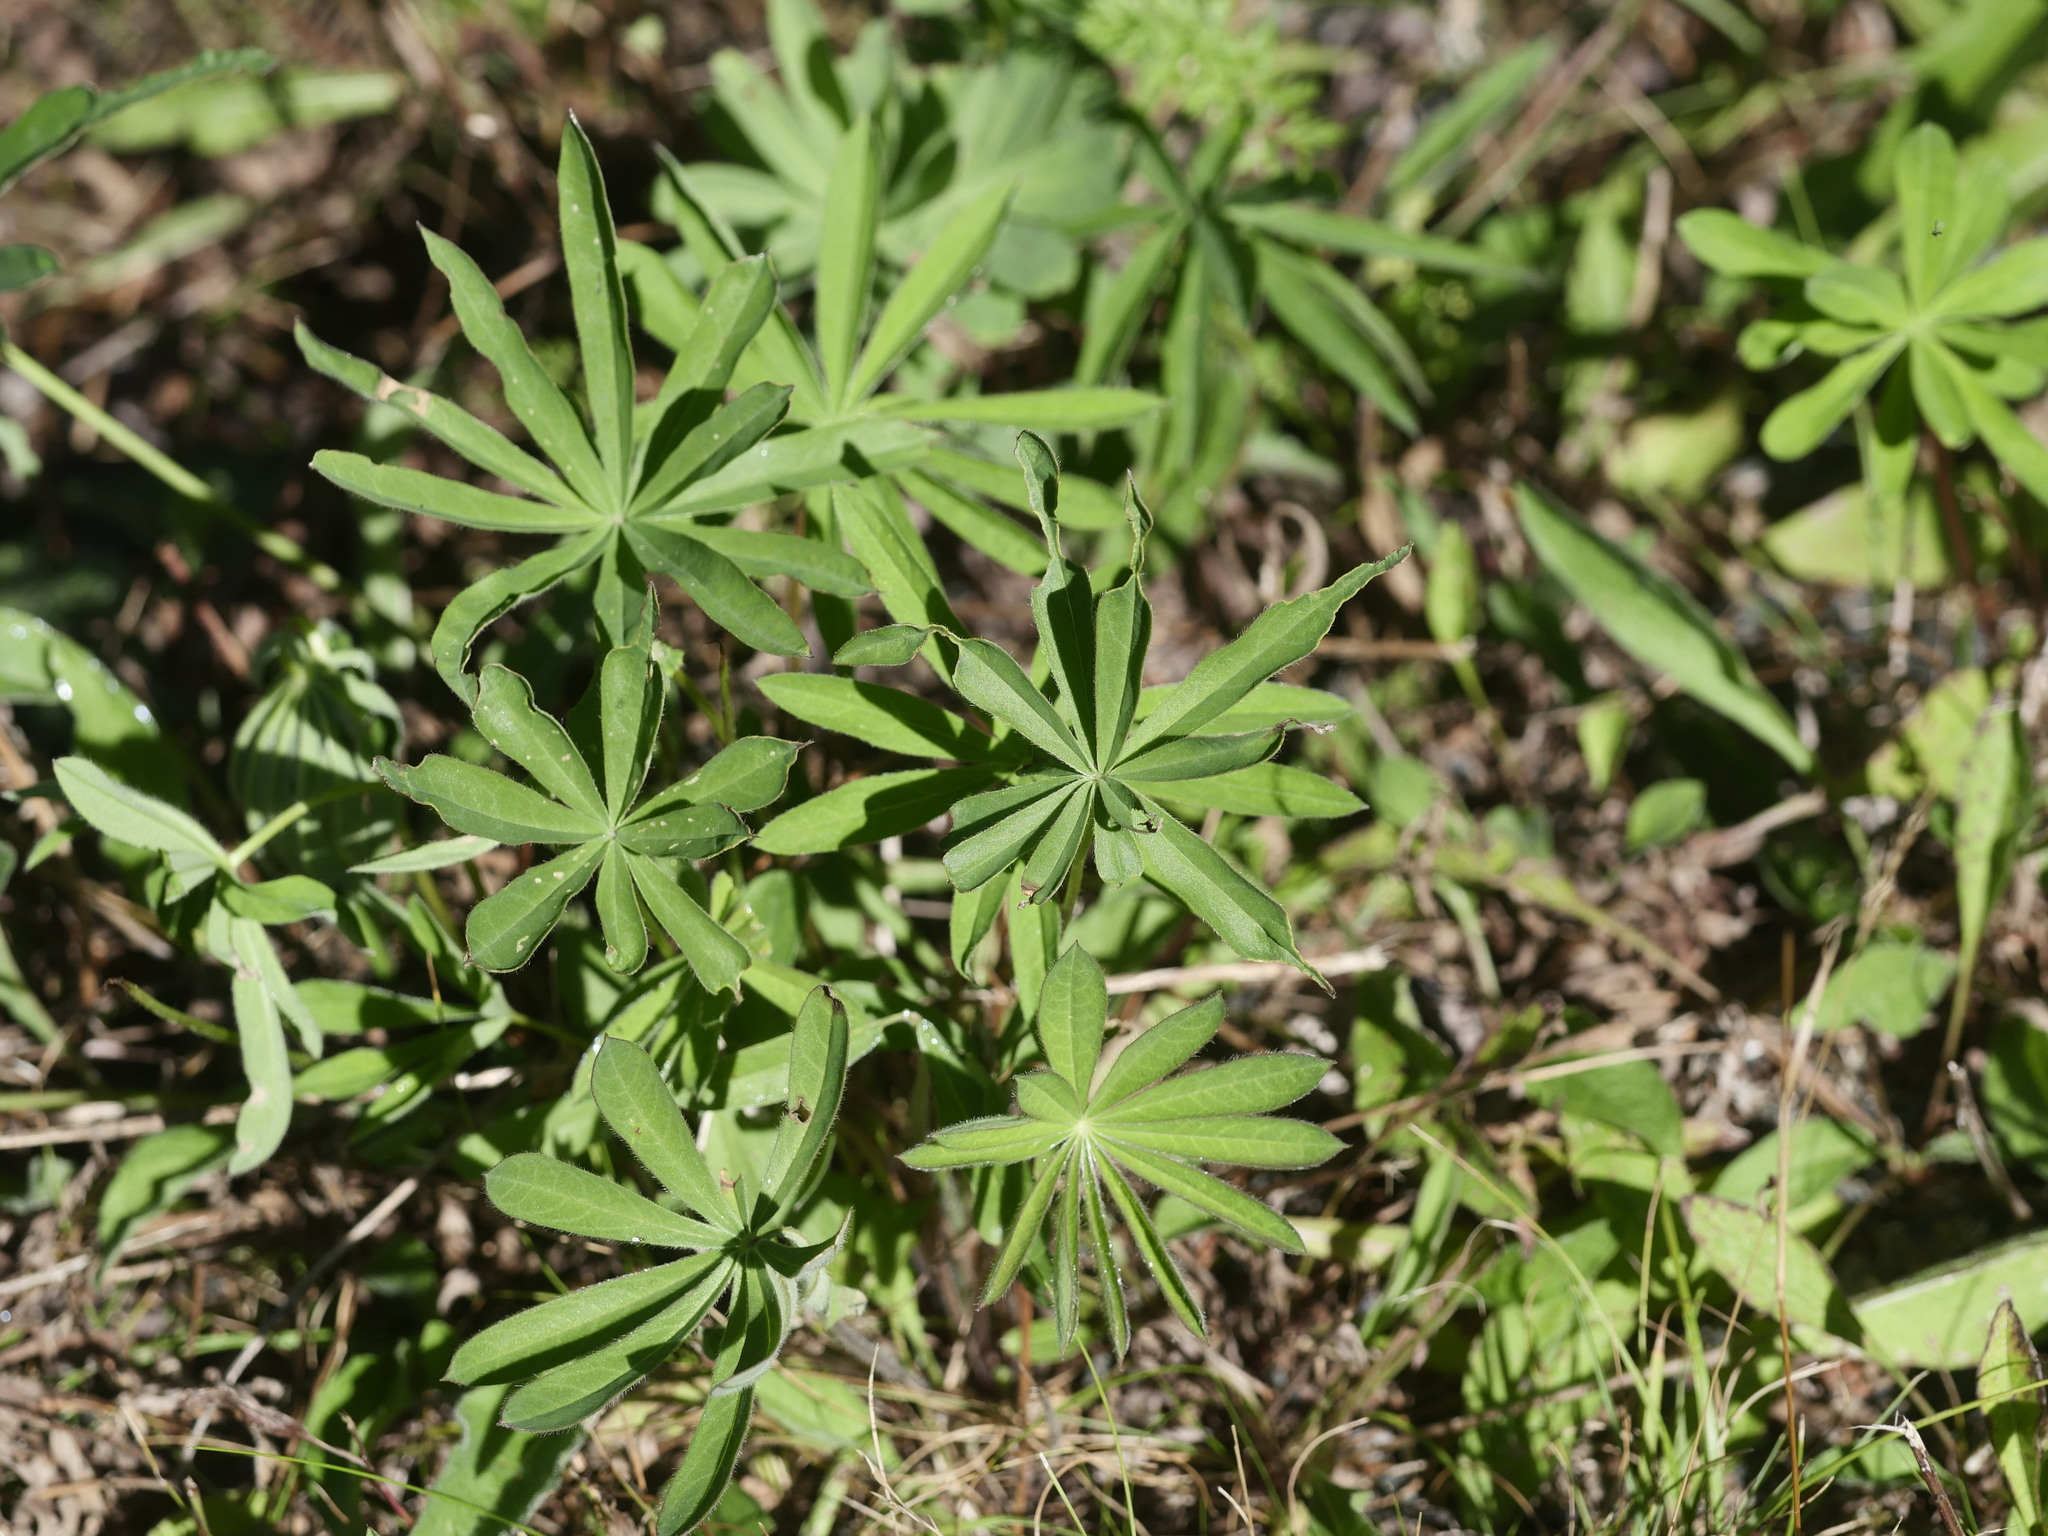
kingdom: Plantae
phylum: Tracheophyta
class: Magnoliopsida
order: Fabales
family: Fabaceae
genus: Lupinus
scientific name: Lupinus polyphyllus
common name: Garden lupin
